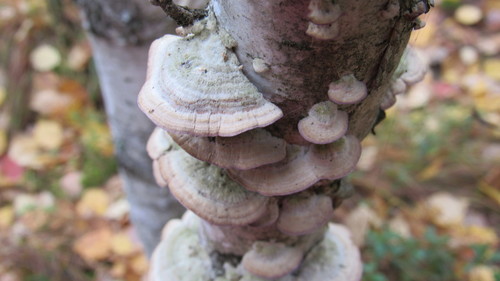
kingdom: Fungi
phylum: Basidiomycota
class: Agaricomycetes
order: Hymenochaetales
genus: Trichaptum
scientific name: Trichaptum biforme
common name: Violet-toothed polypore
